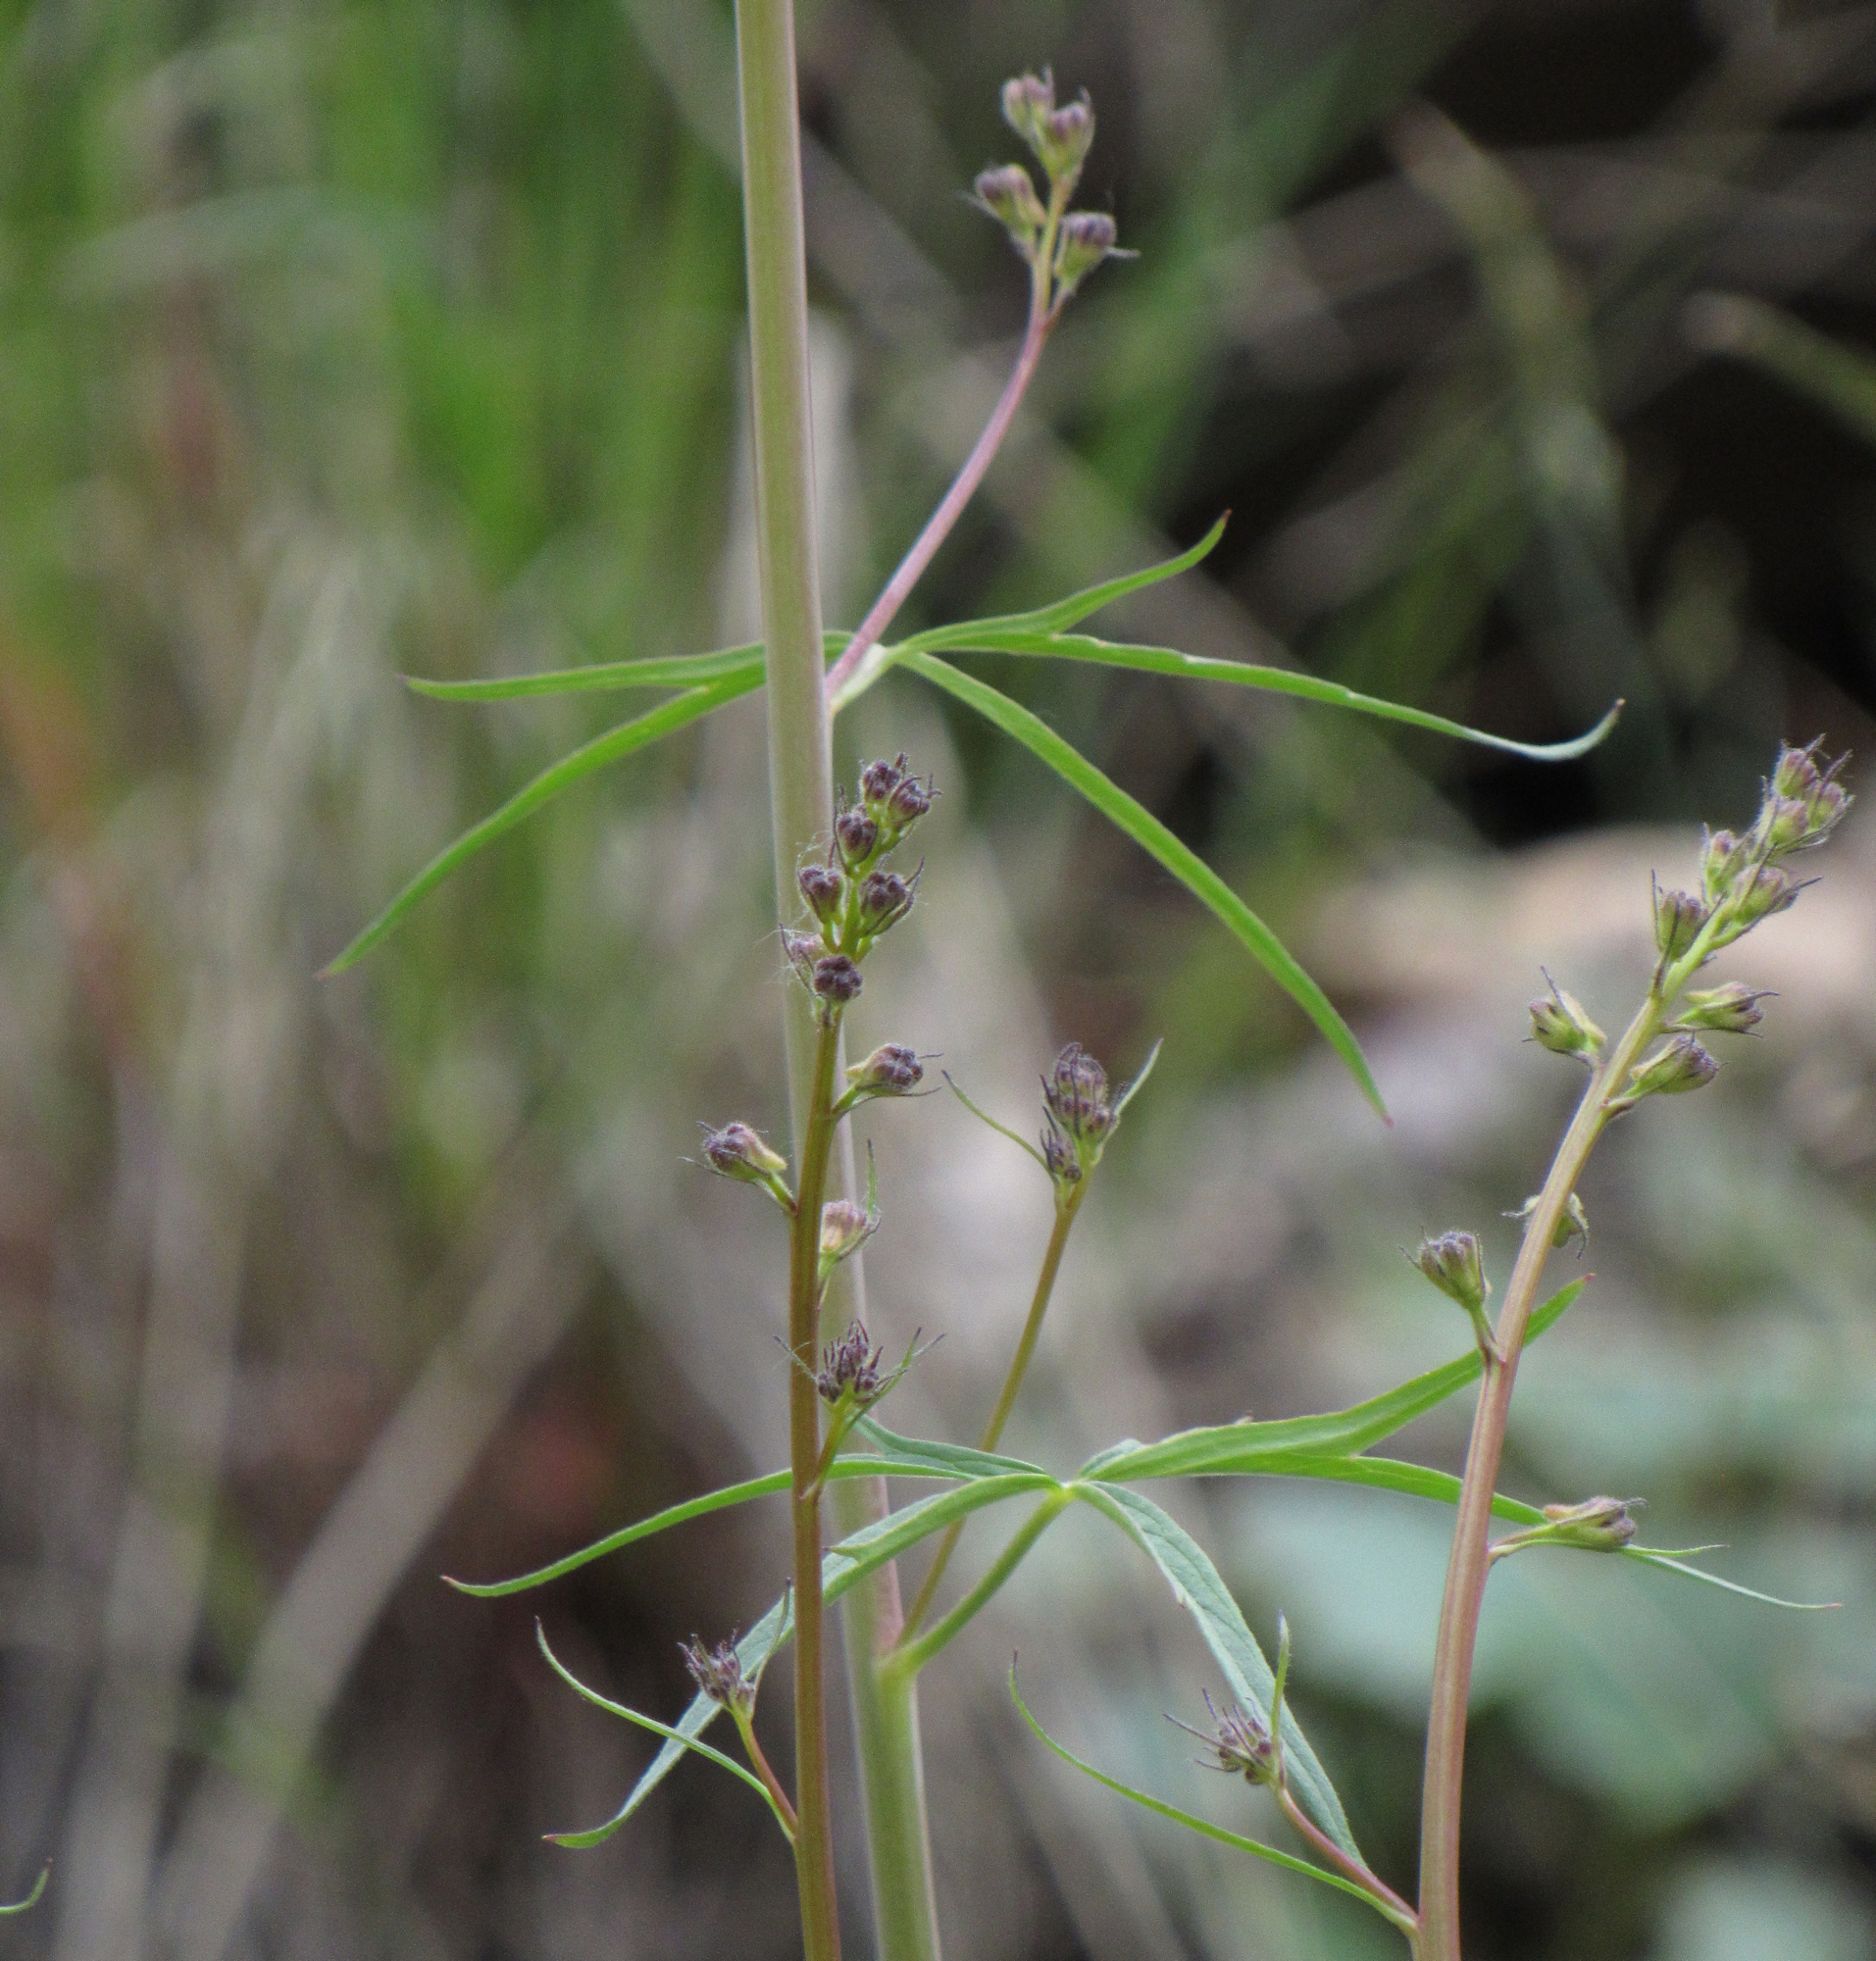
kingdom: Plantae
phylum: Tracheophyta
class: Magnoliopsida
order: Ranunculales
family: Ranunculaceae
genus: Delphinium
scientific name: Delphinium glaucescens
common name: Glaucous larkspur
